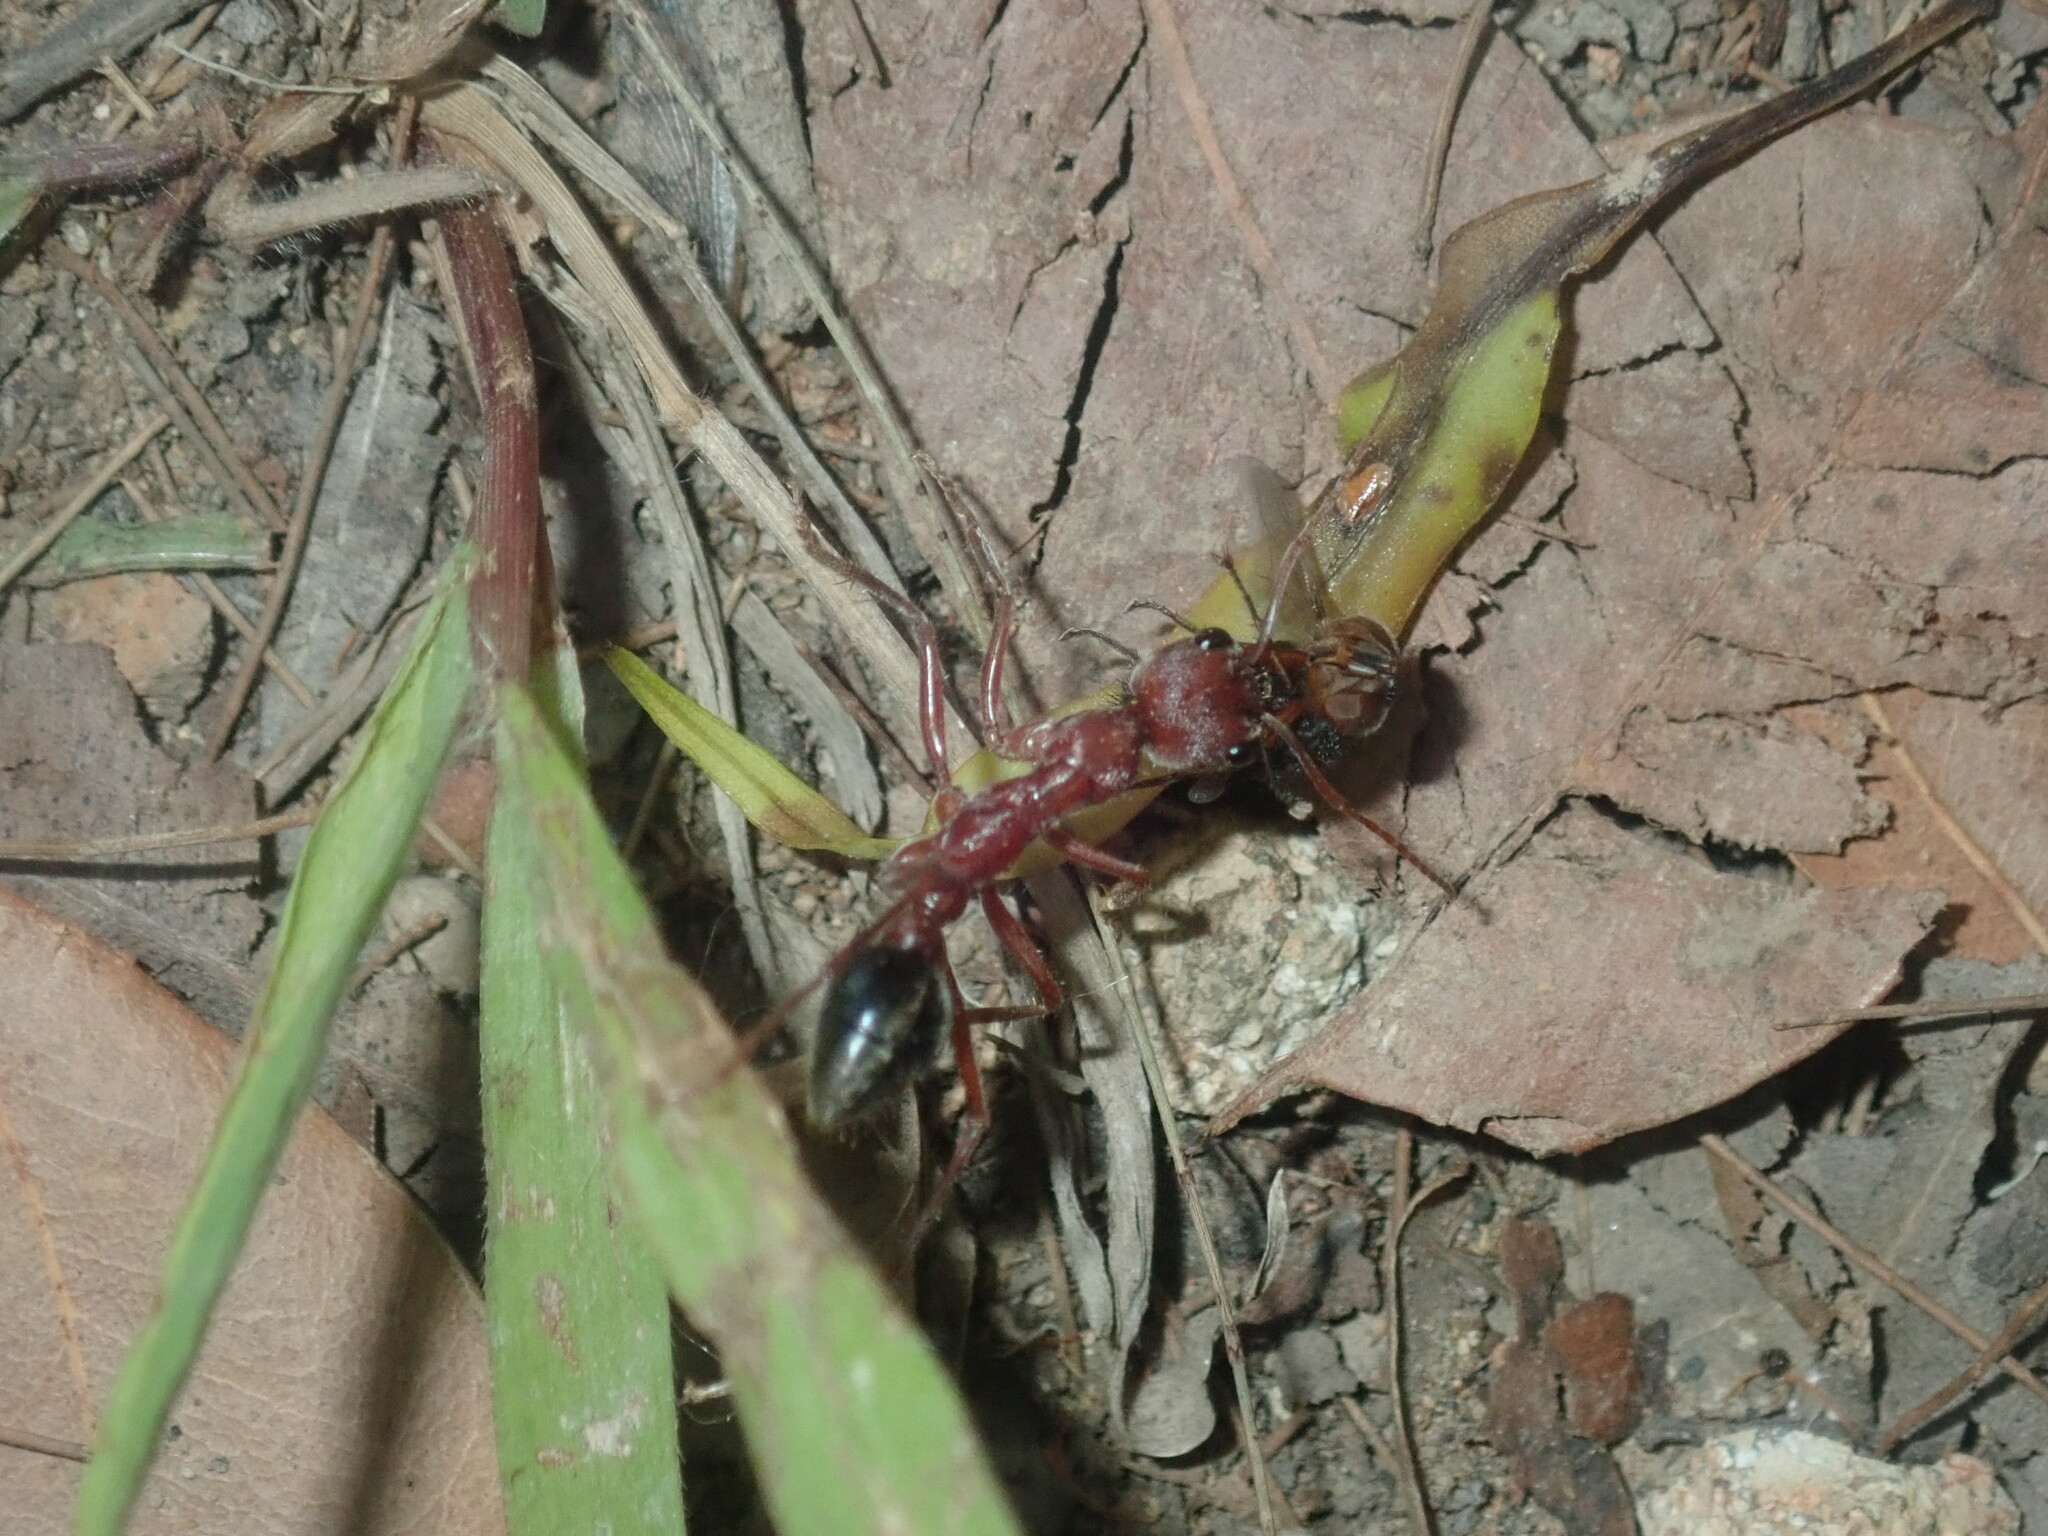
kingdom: Animalia
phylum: Arthropoda
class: Insecta
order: Hymenoptera
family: Formicidae
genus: Myrmecia
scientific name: Myrmecia comata
